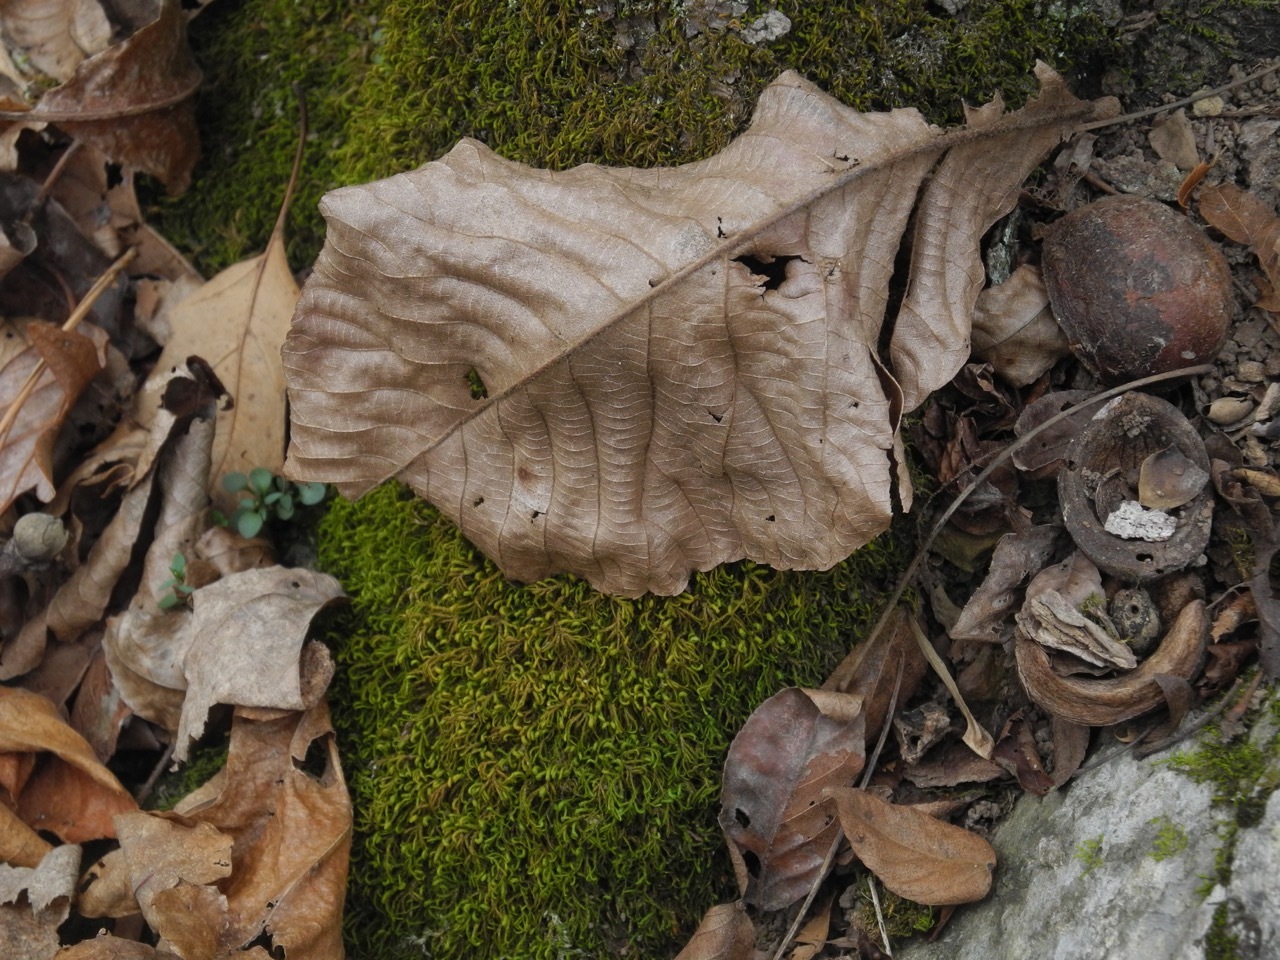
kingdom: Plantae
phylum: Tracheophyta
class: Magnoliopsida
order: Fagales
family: Juglandaceae
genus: Carya
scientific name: Carya alba
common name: Mockernut hickory
